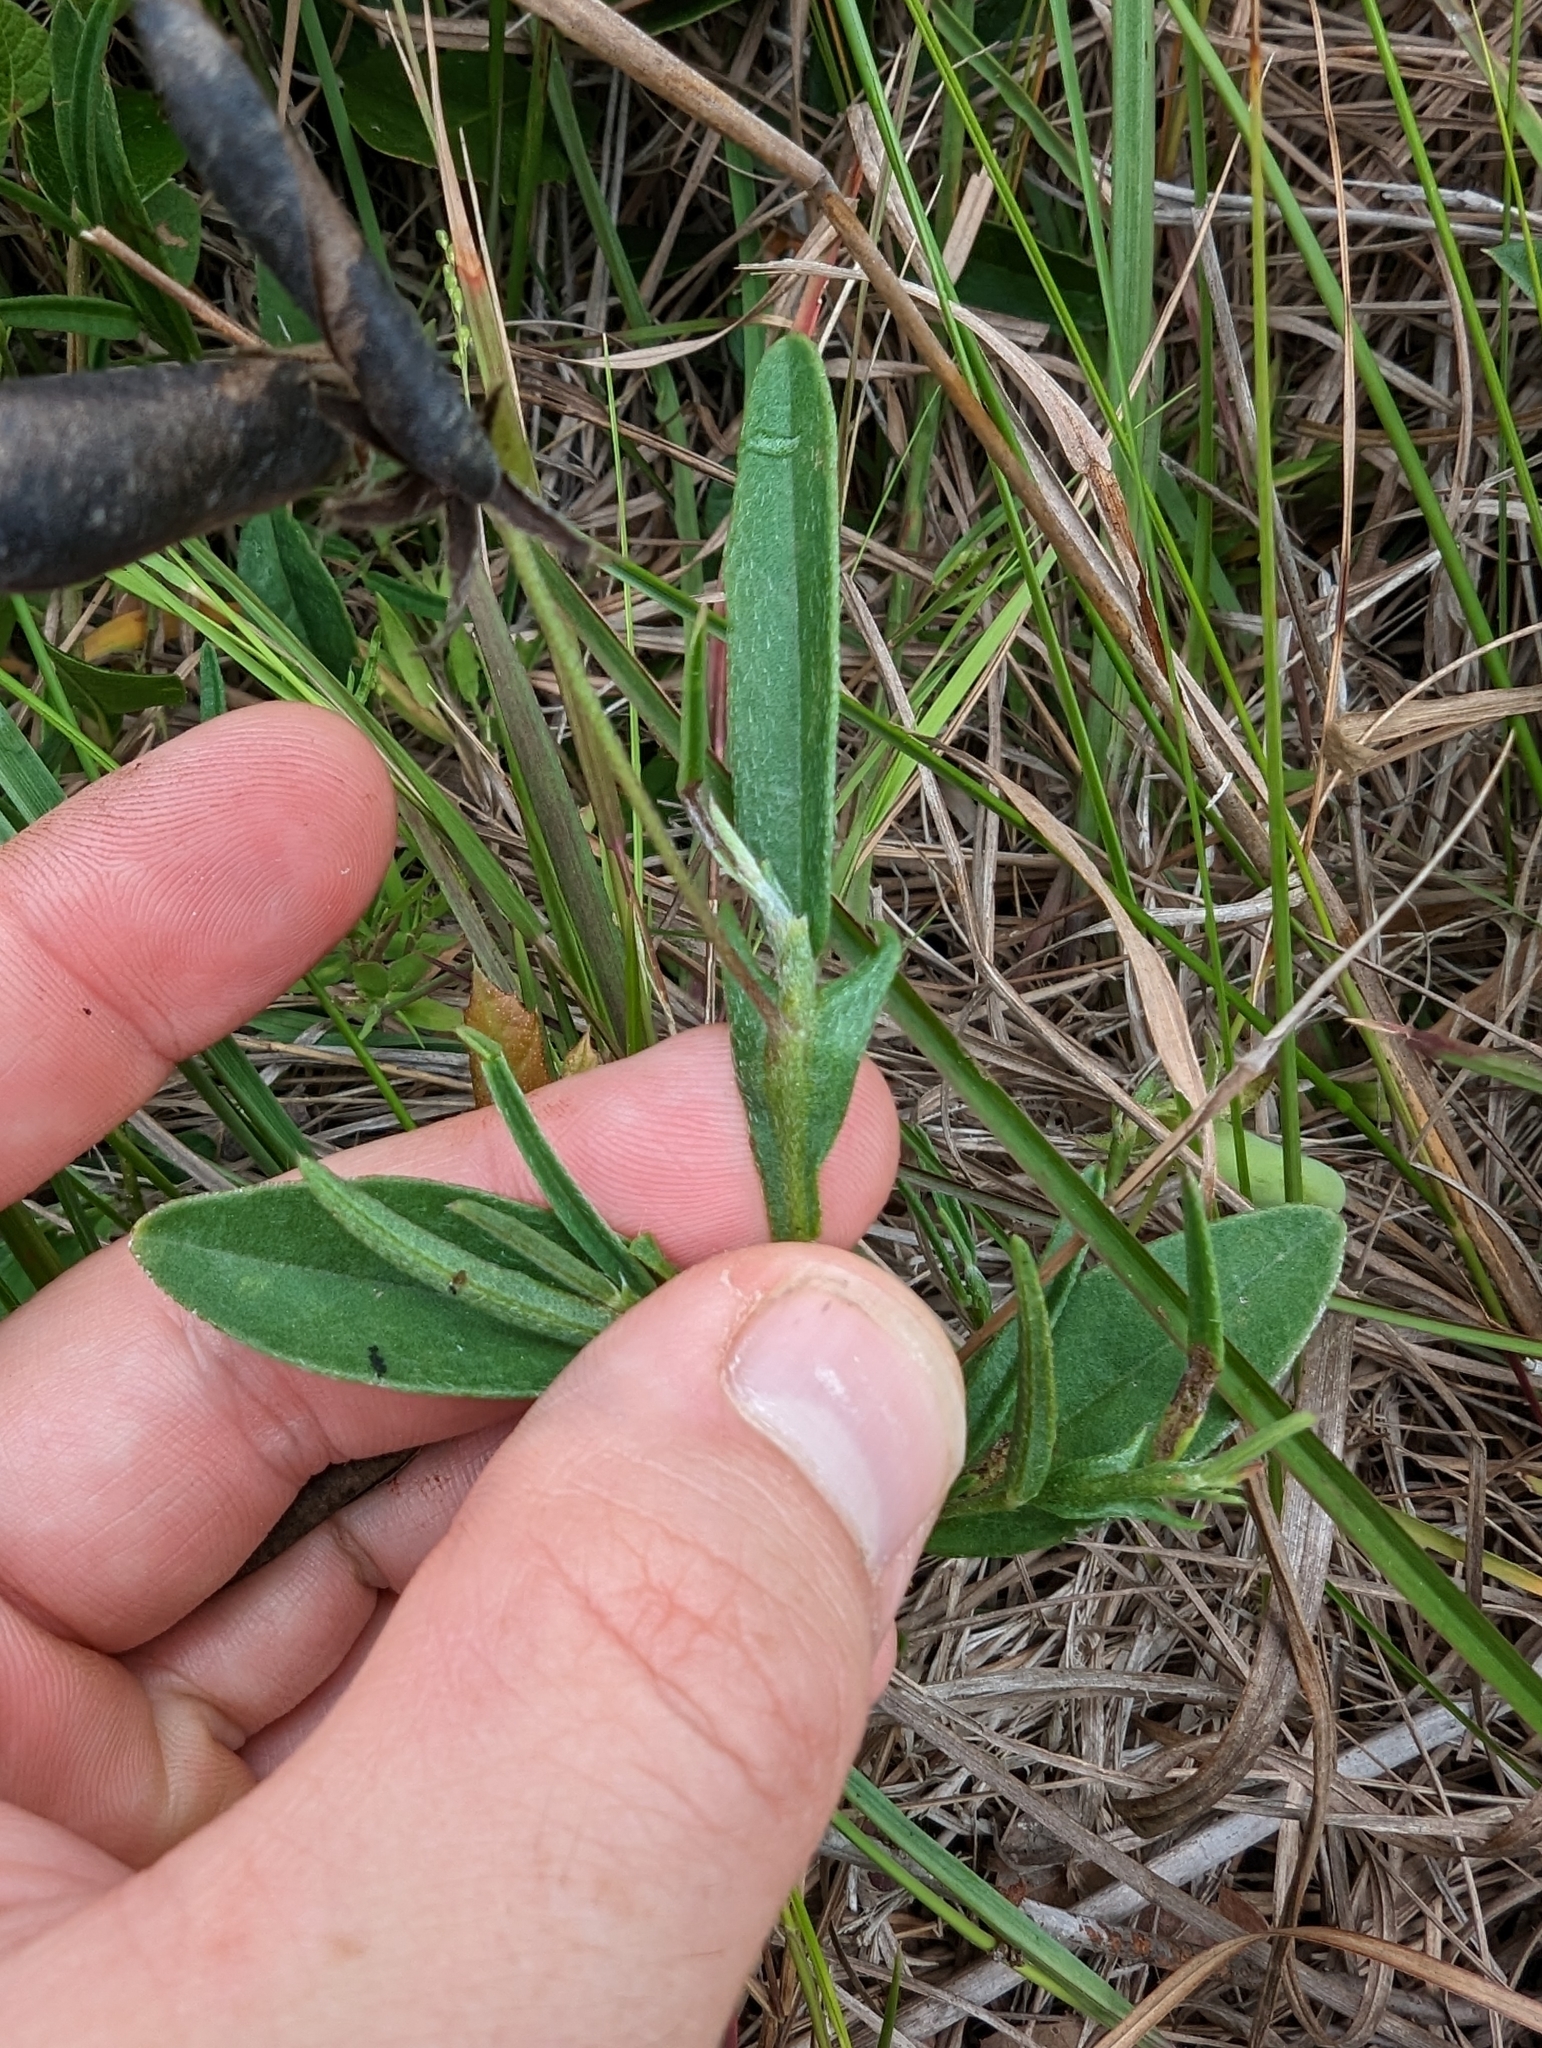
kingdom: Plantae
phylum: Tracheophyta
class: Magnoliopsida
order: Fabales
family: Fabaceae
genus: Crotalaria
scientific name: Crotalaria sagittalis
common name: Arrowhead rattlebox
